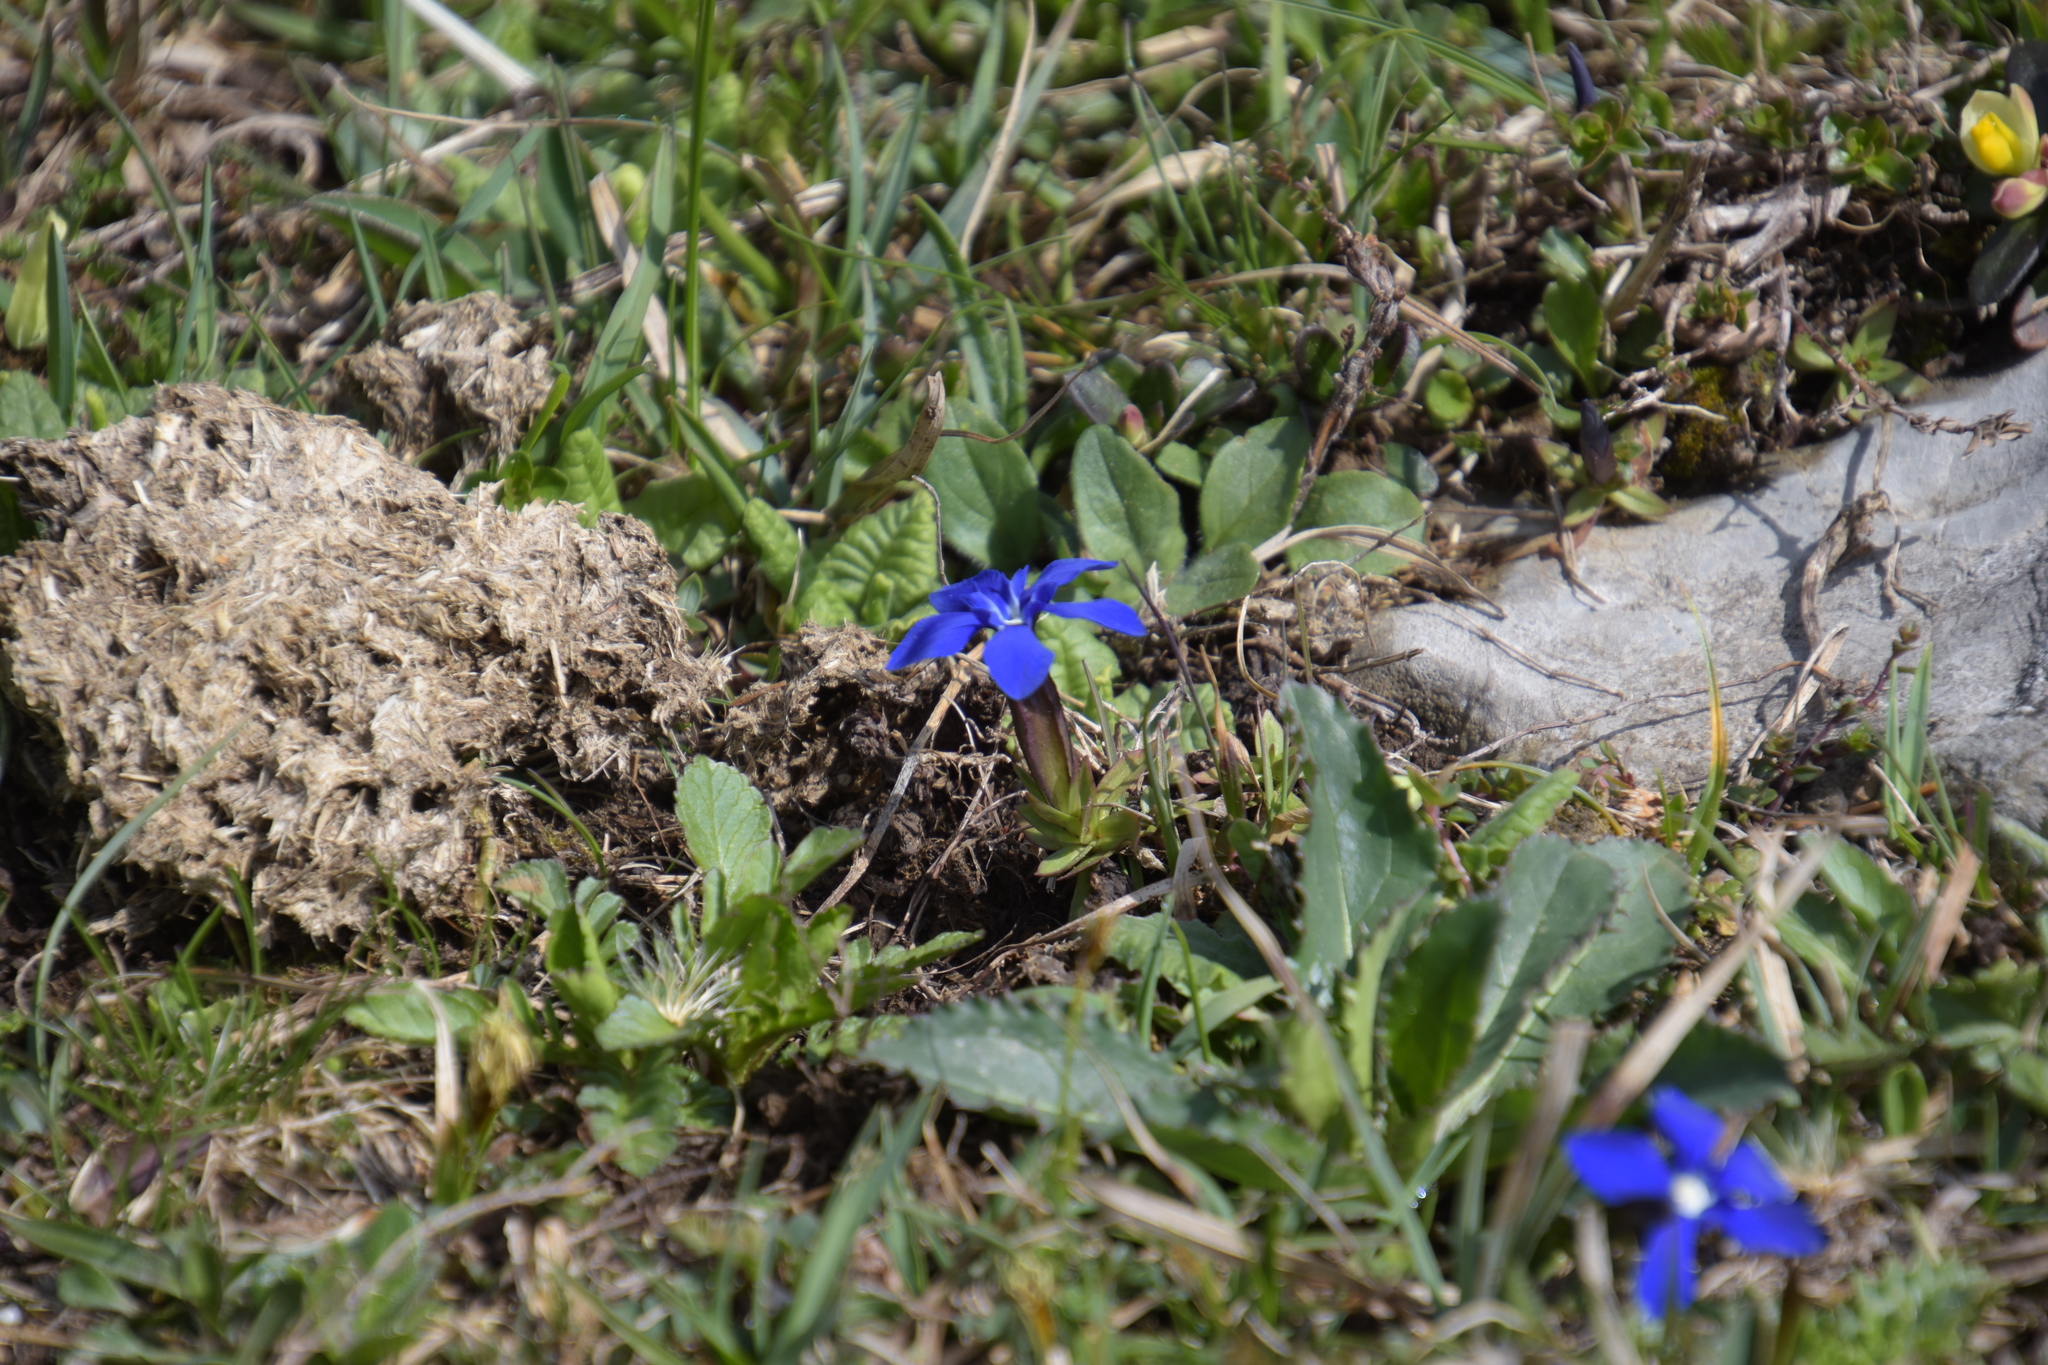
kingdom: Plantae
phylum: Tracheophyta
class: Magnoliopsida
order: Gentianales
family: Gentianaceae
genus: Gentiana
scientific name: Gentiana verna
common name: Spring gentian
